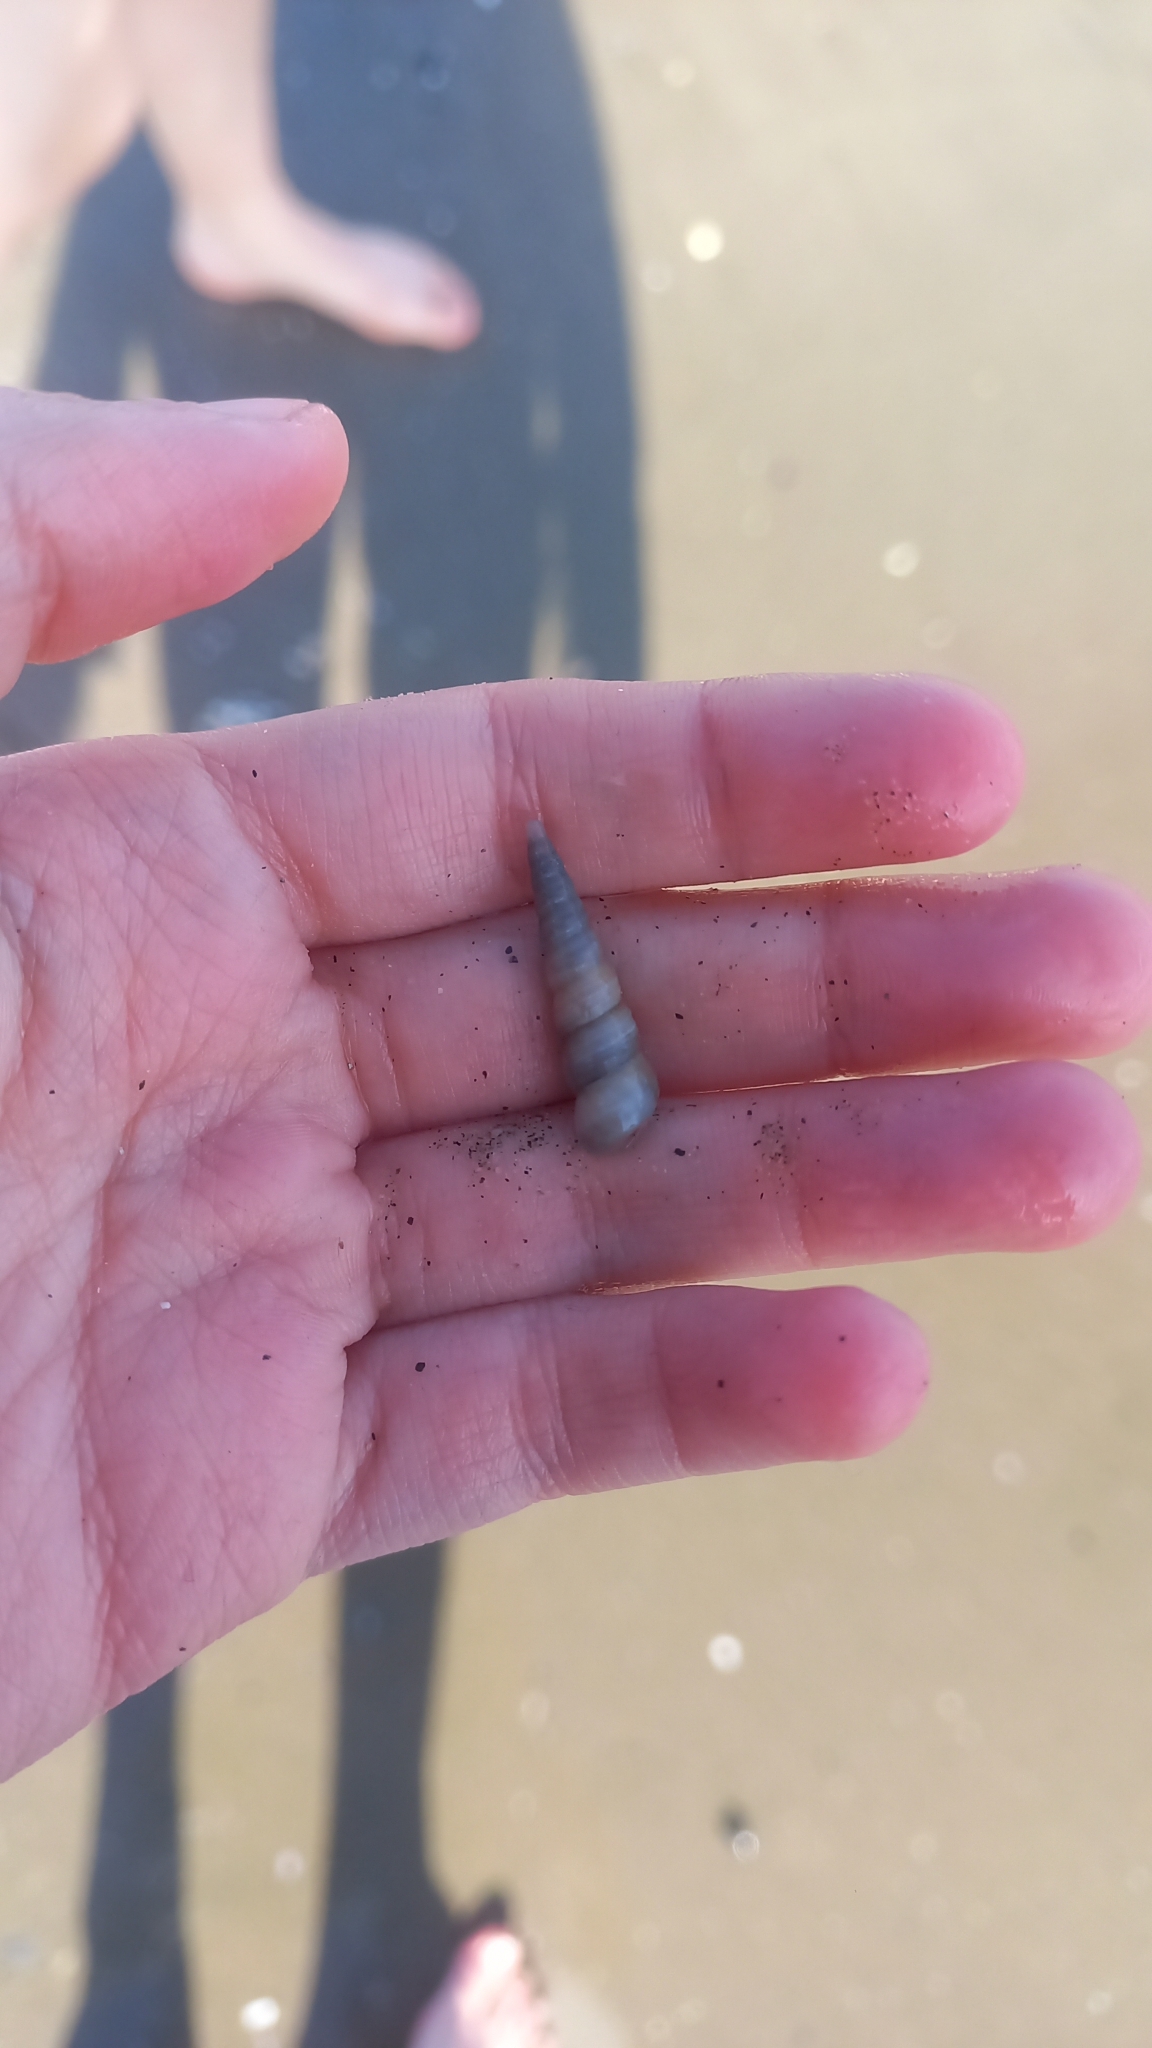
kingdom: Animalia
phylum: Mollusca
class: Gastropoda
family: Turritellidae
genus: Turritellinella
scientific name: Turritellinella tricarinata
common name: Auger shell
